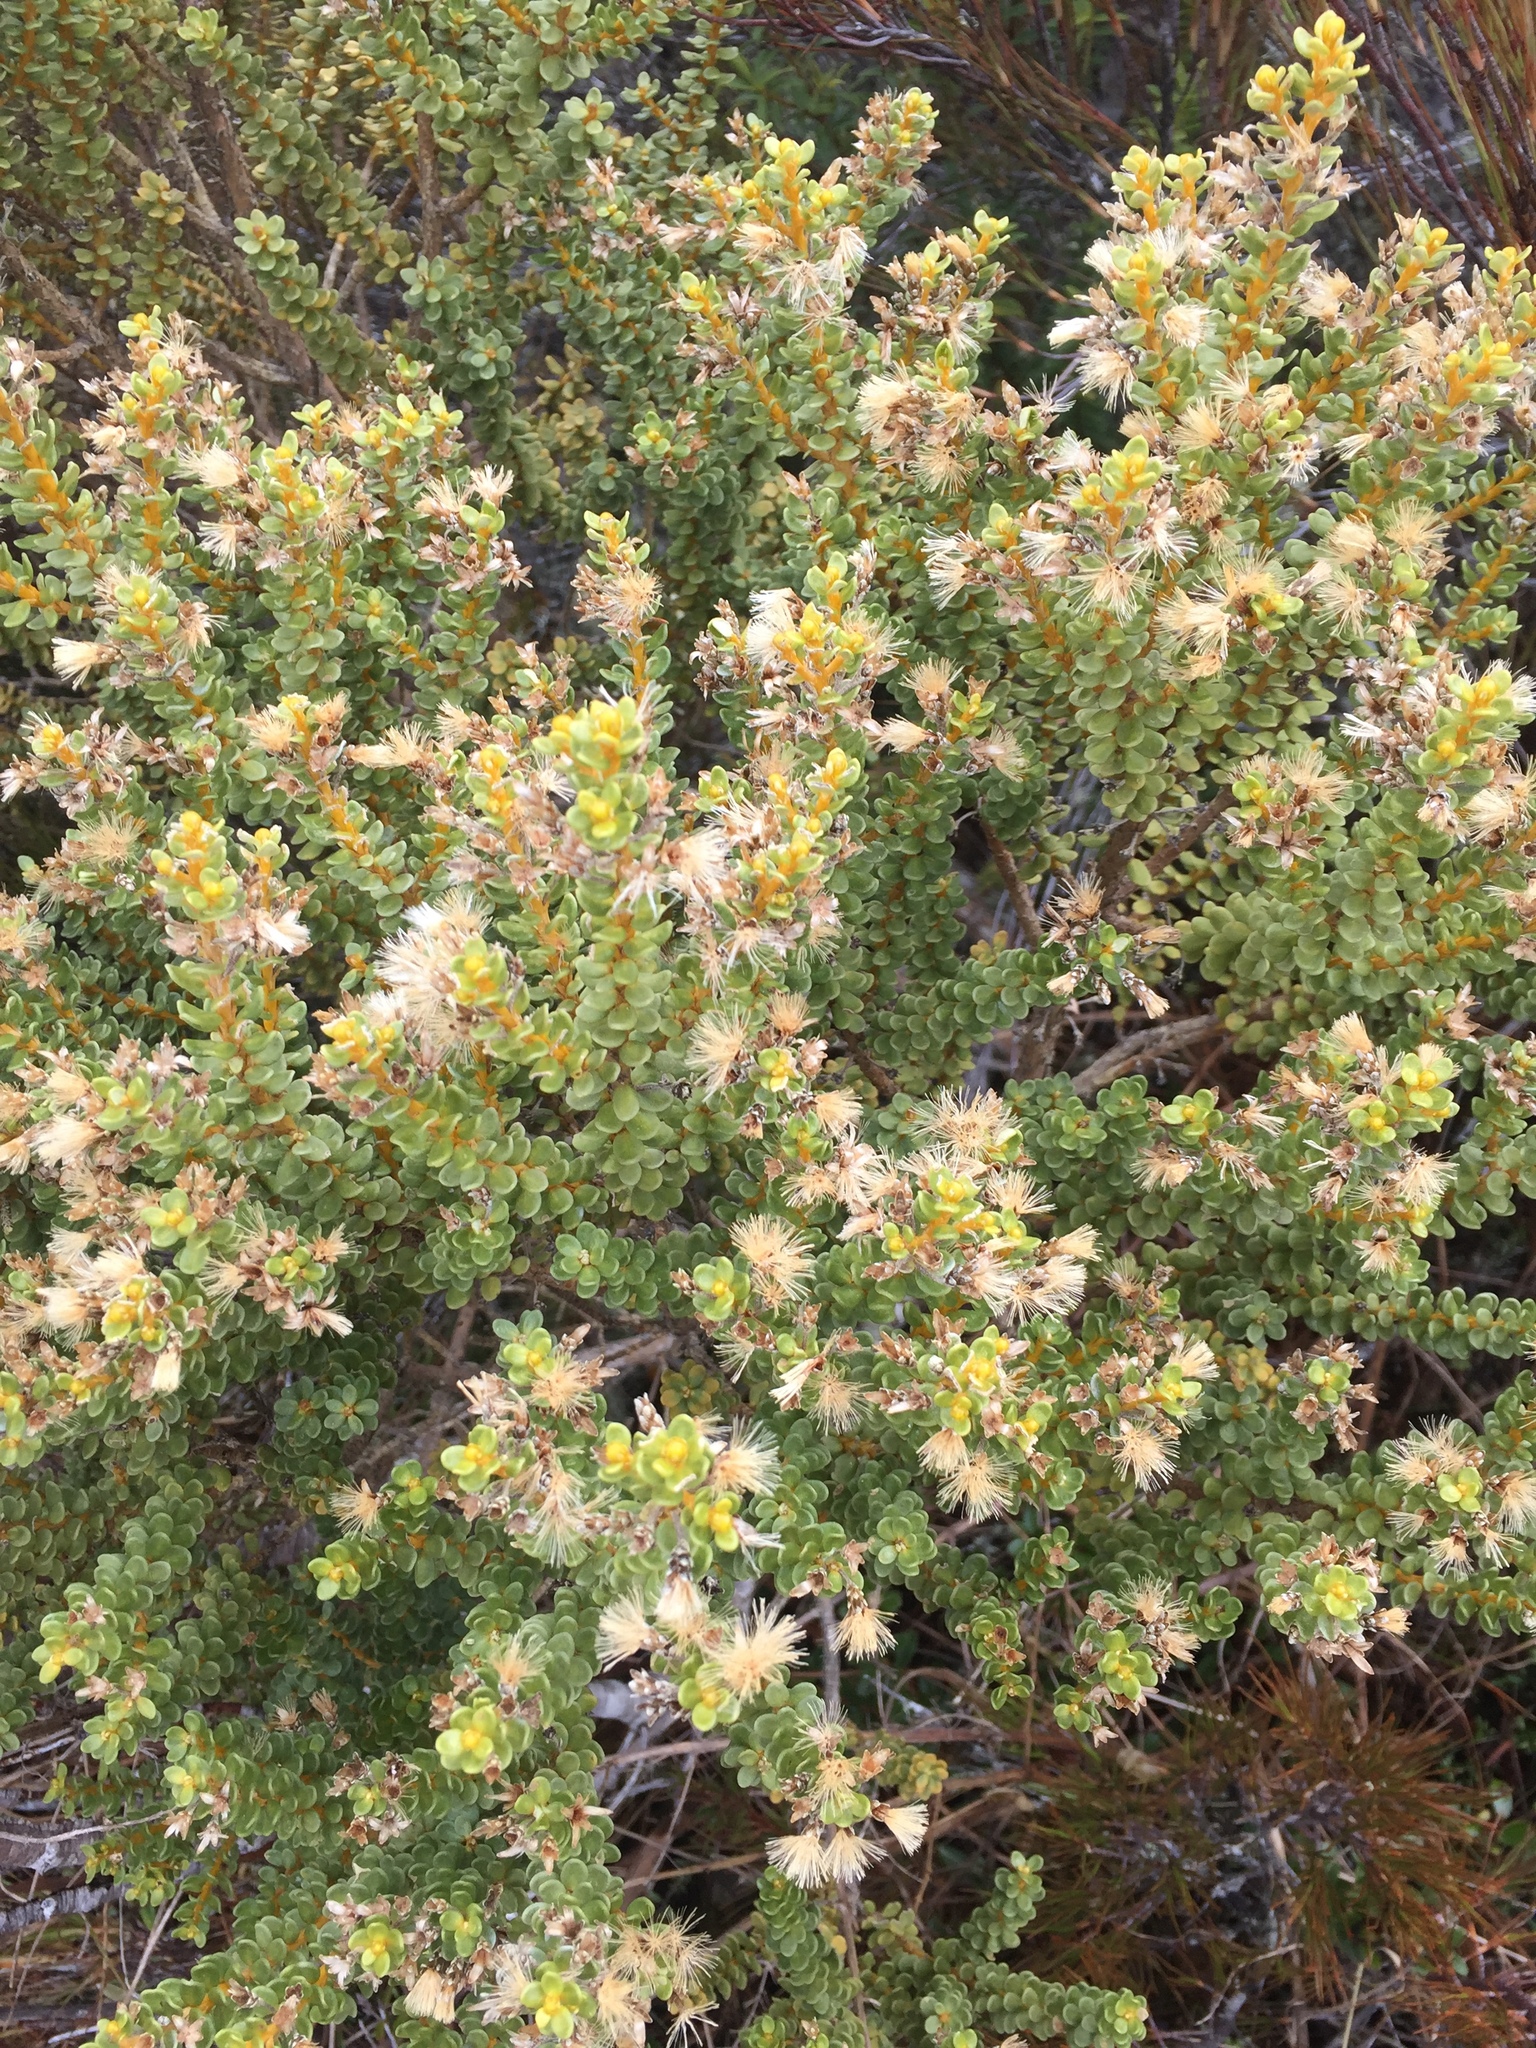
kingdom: Plantae
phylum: Tracheophyta
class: Magnoliopsida
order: Asterales
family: Asteraceae
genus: Olearia
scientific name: Olearia nummularifolia
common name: Sticky daisybush
